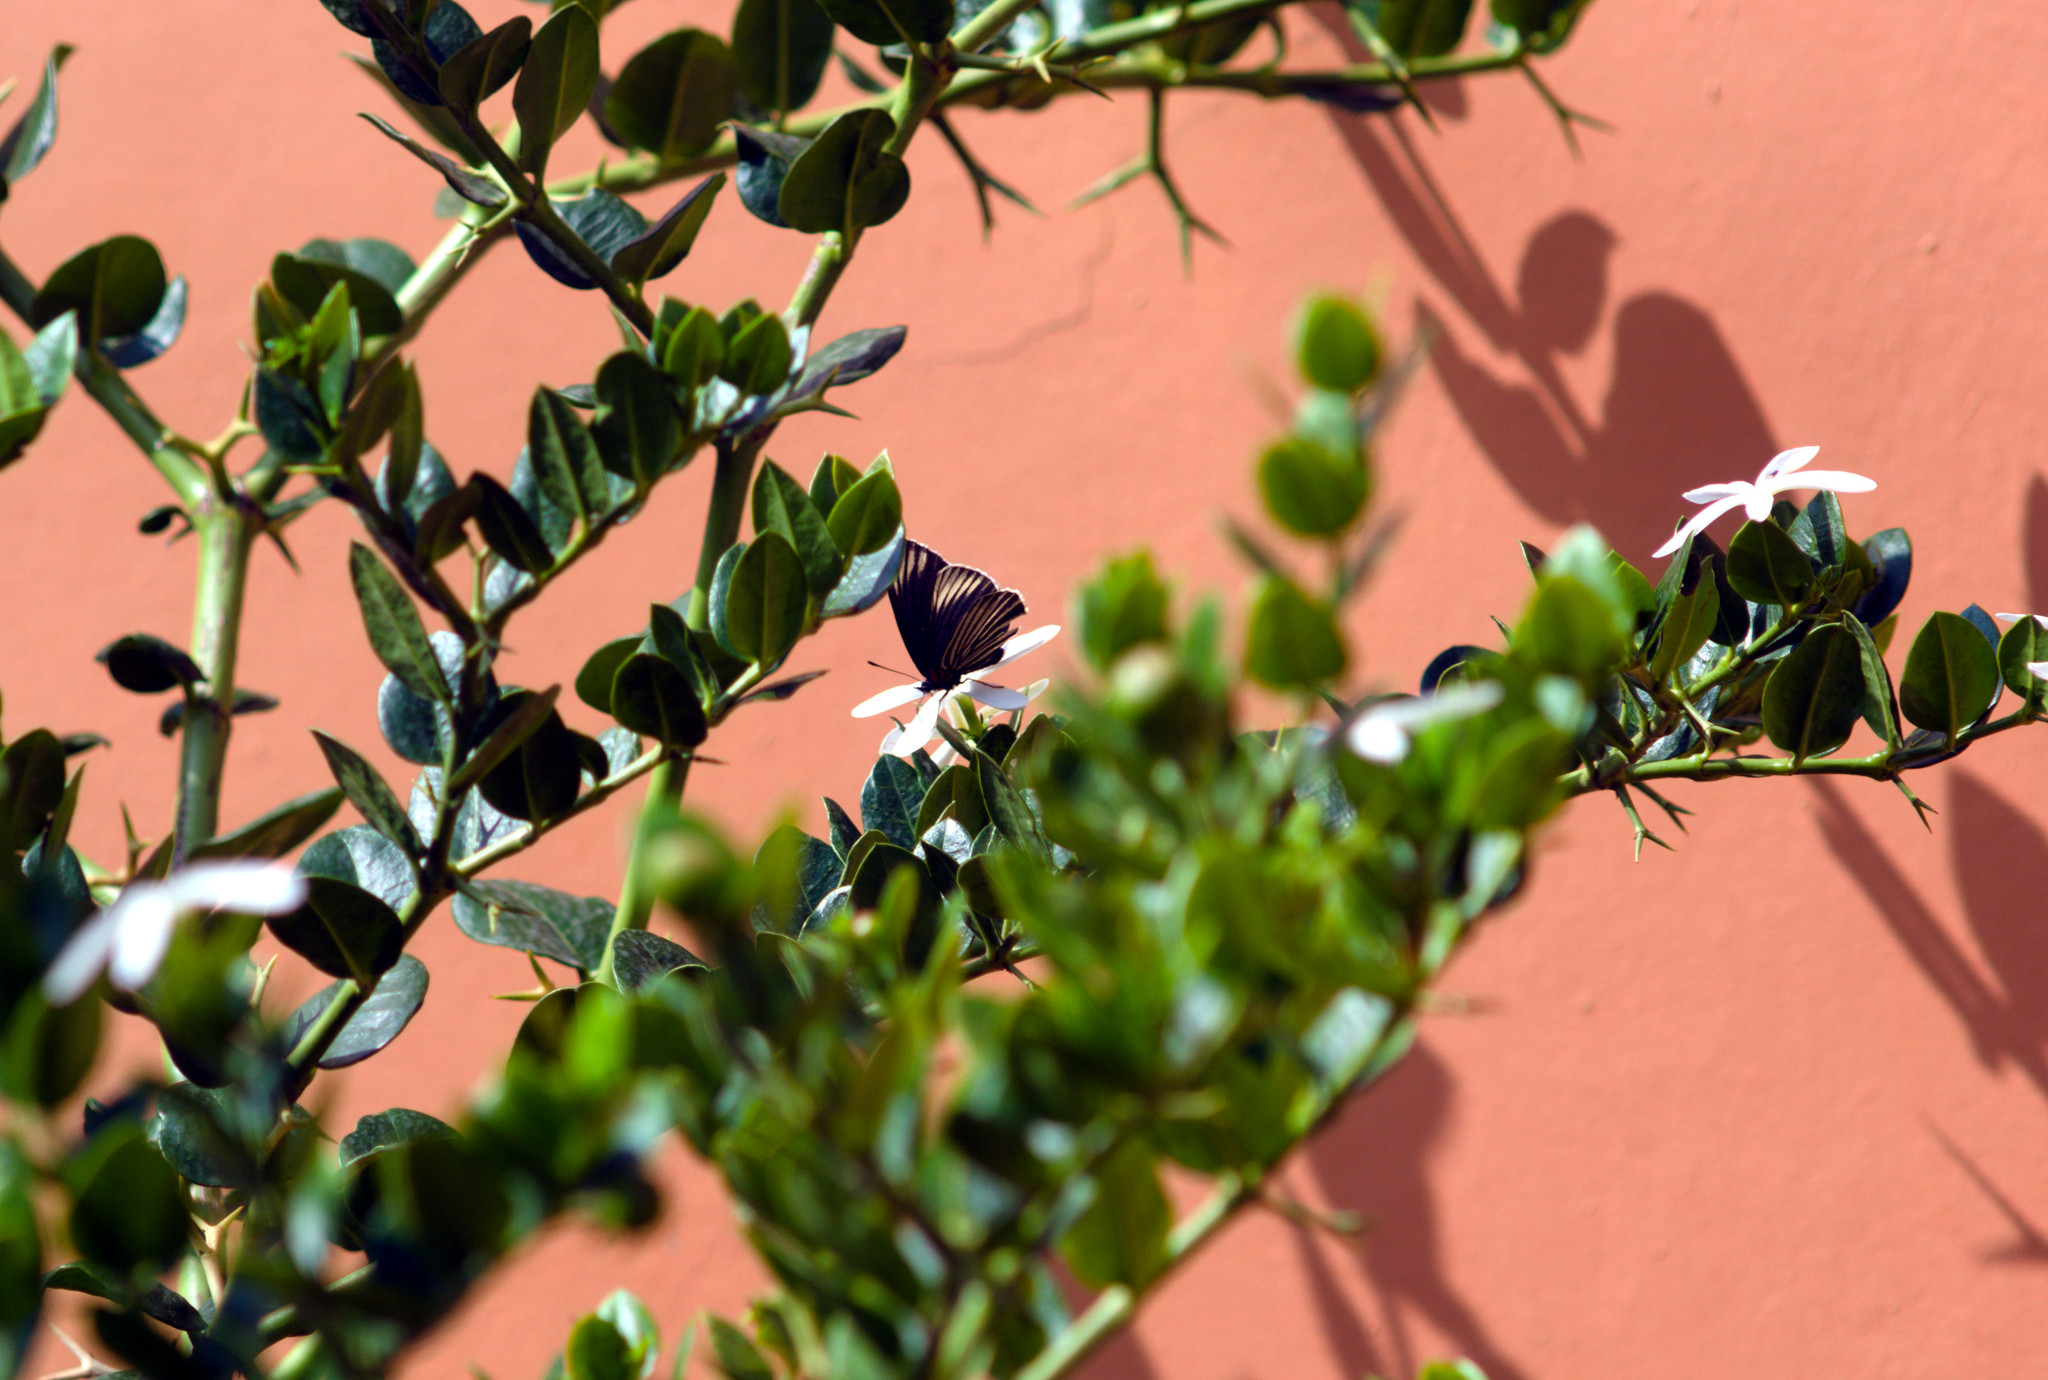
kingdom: Animalia
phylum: Arthropoda
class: Insecta
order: Lepidoptera
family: Nymphalidae
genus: Chlosyne
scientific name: Chlosyne ehrenbergii
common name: White-rayed patch
